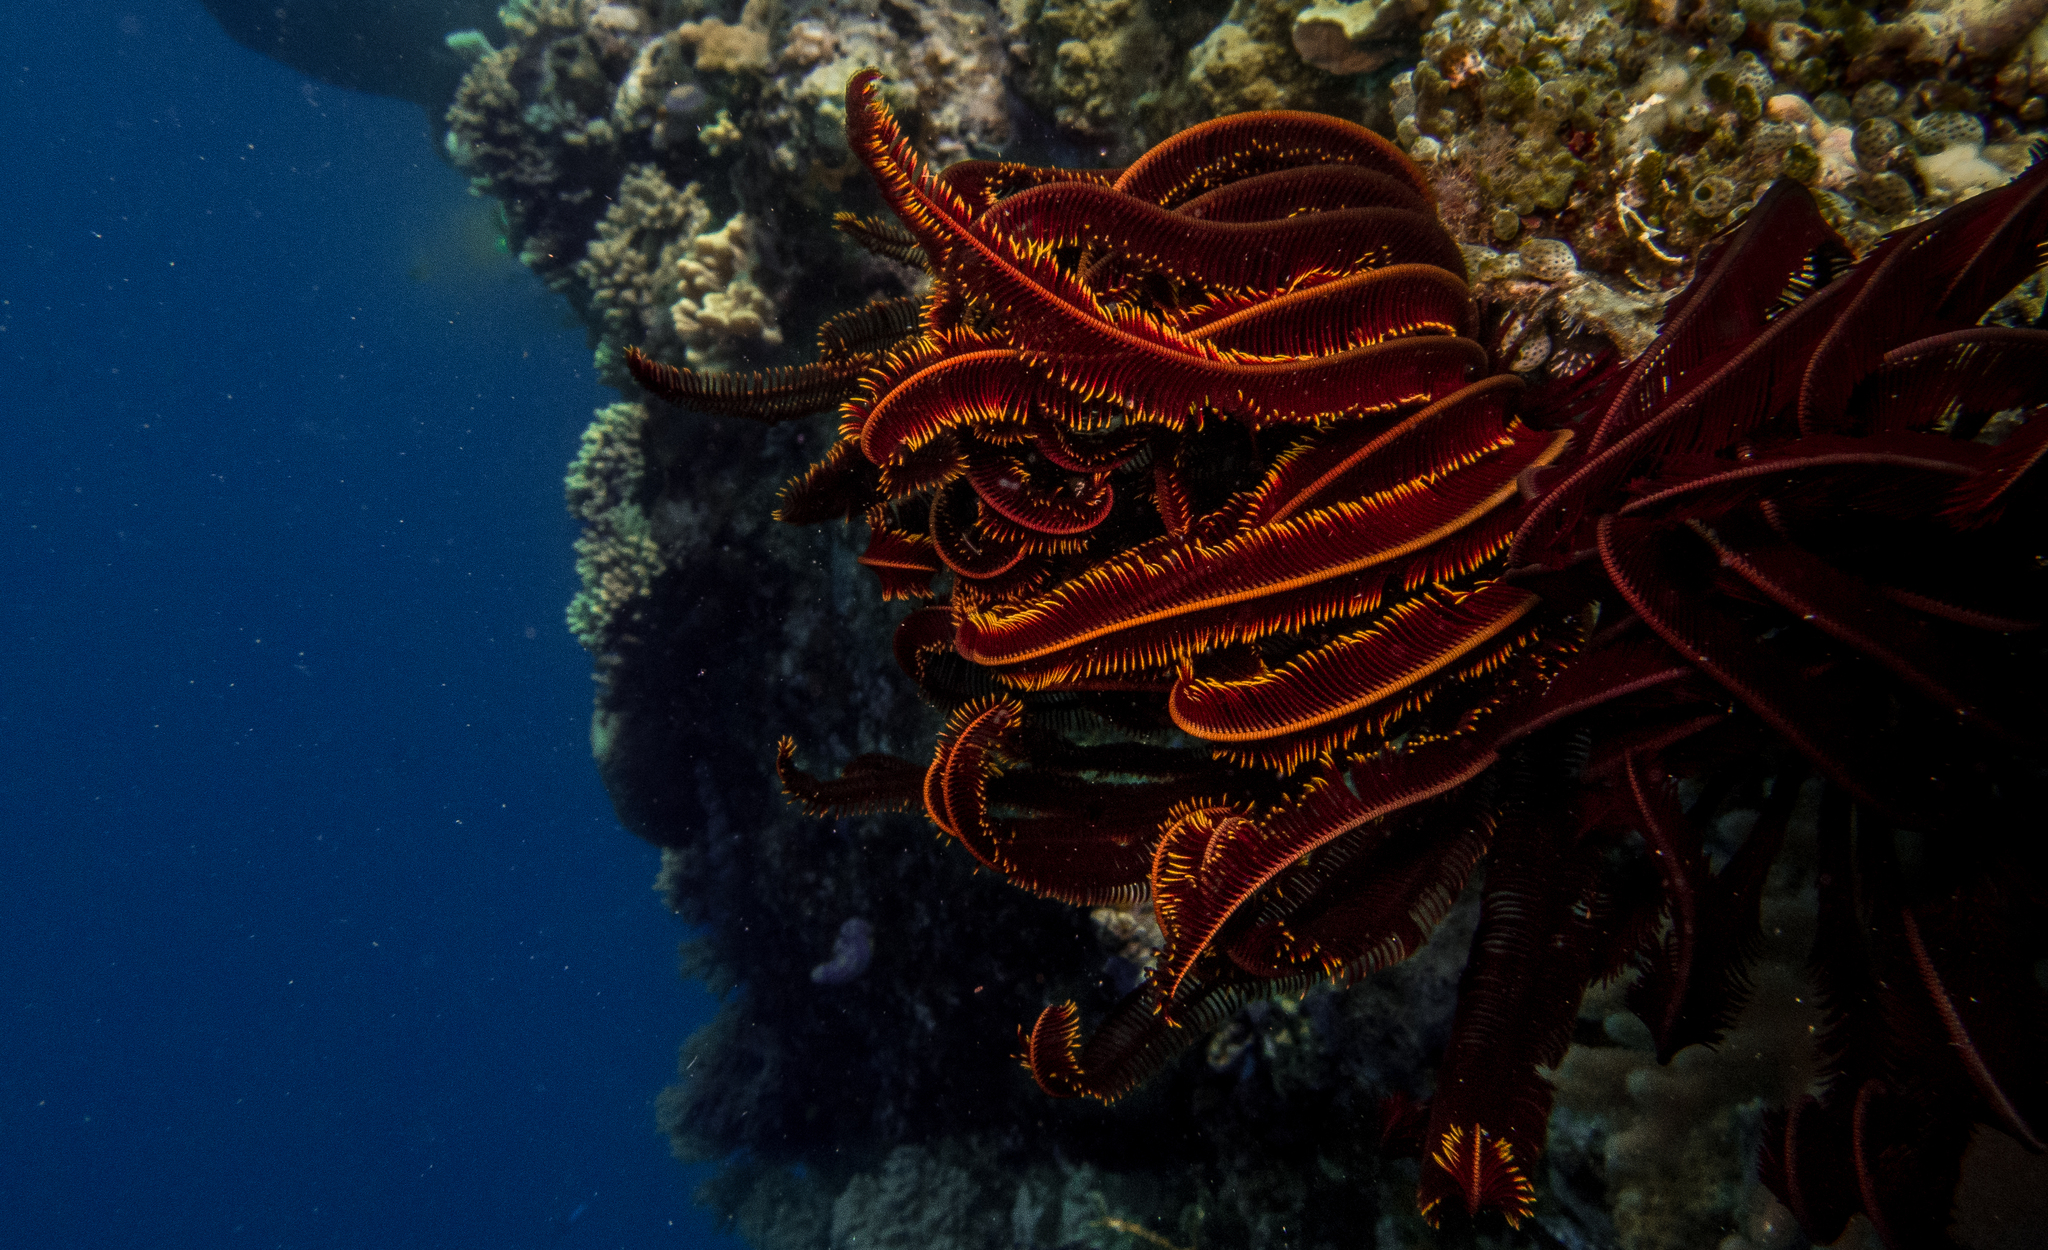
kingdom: Animalia
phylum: Echinodermata
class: Crinoidea
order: Comatulida
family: Himerometridae
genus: Himerometra
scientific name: Himerometra robustipinna
